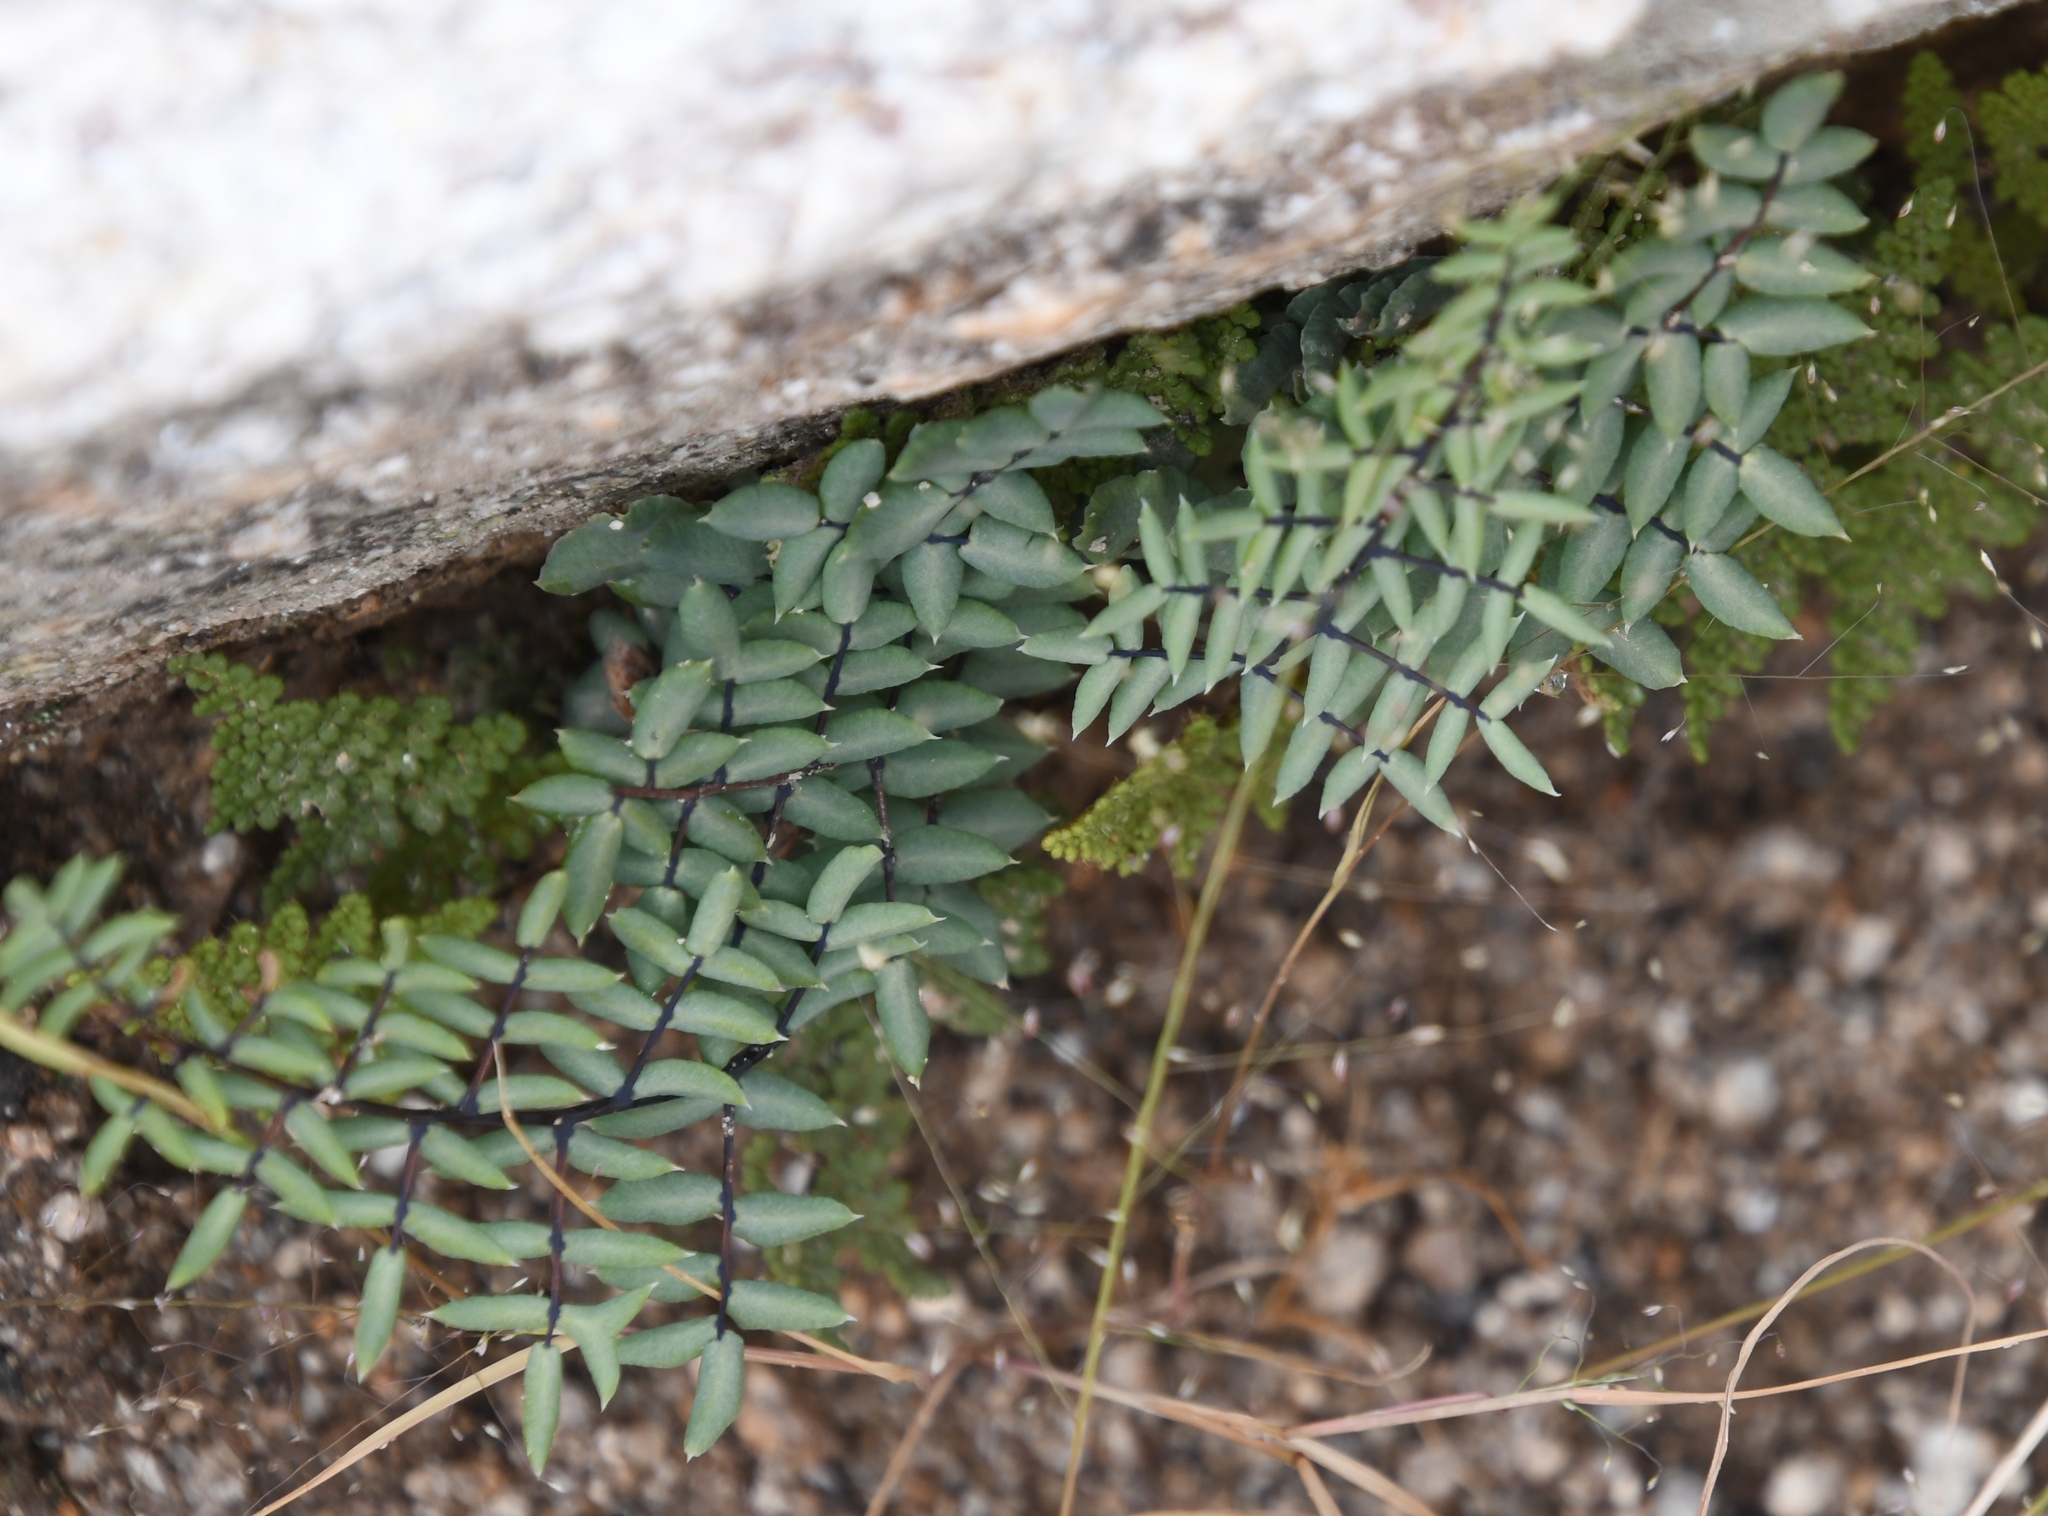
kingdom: Plantae
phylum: Tracheophyta
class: Polypodiopsida
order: Polypodiales
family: Pteridaceae
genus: Pellaea
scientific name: Pellaea truncata
